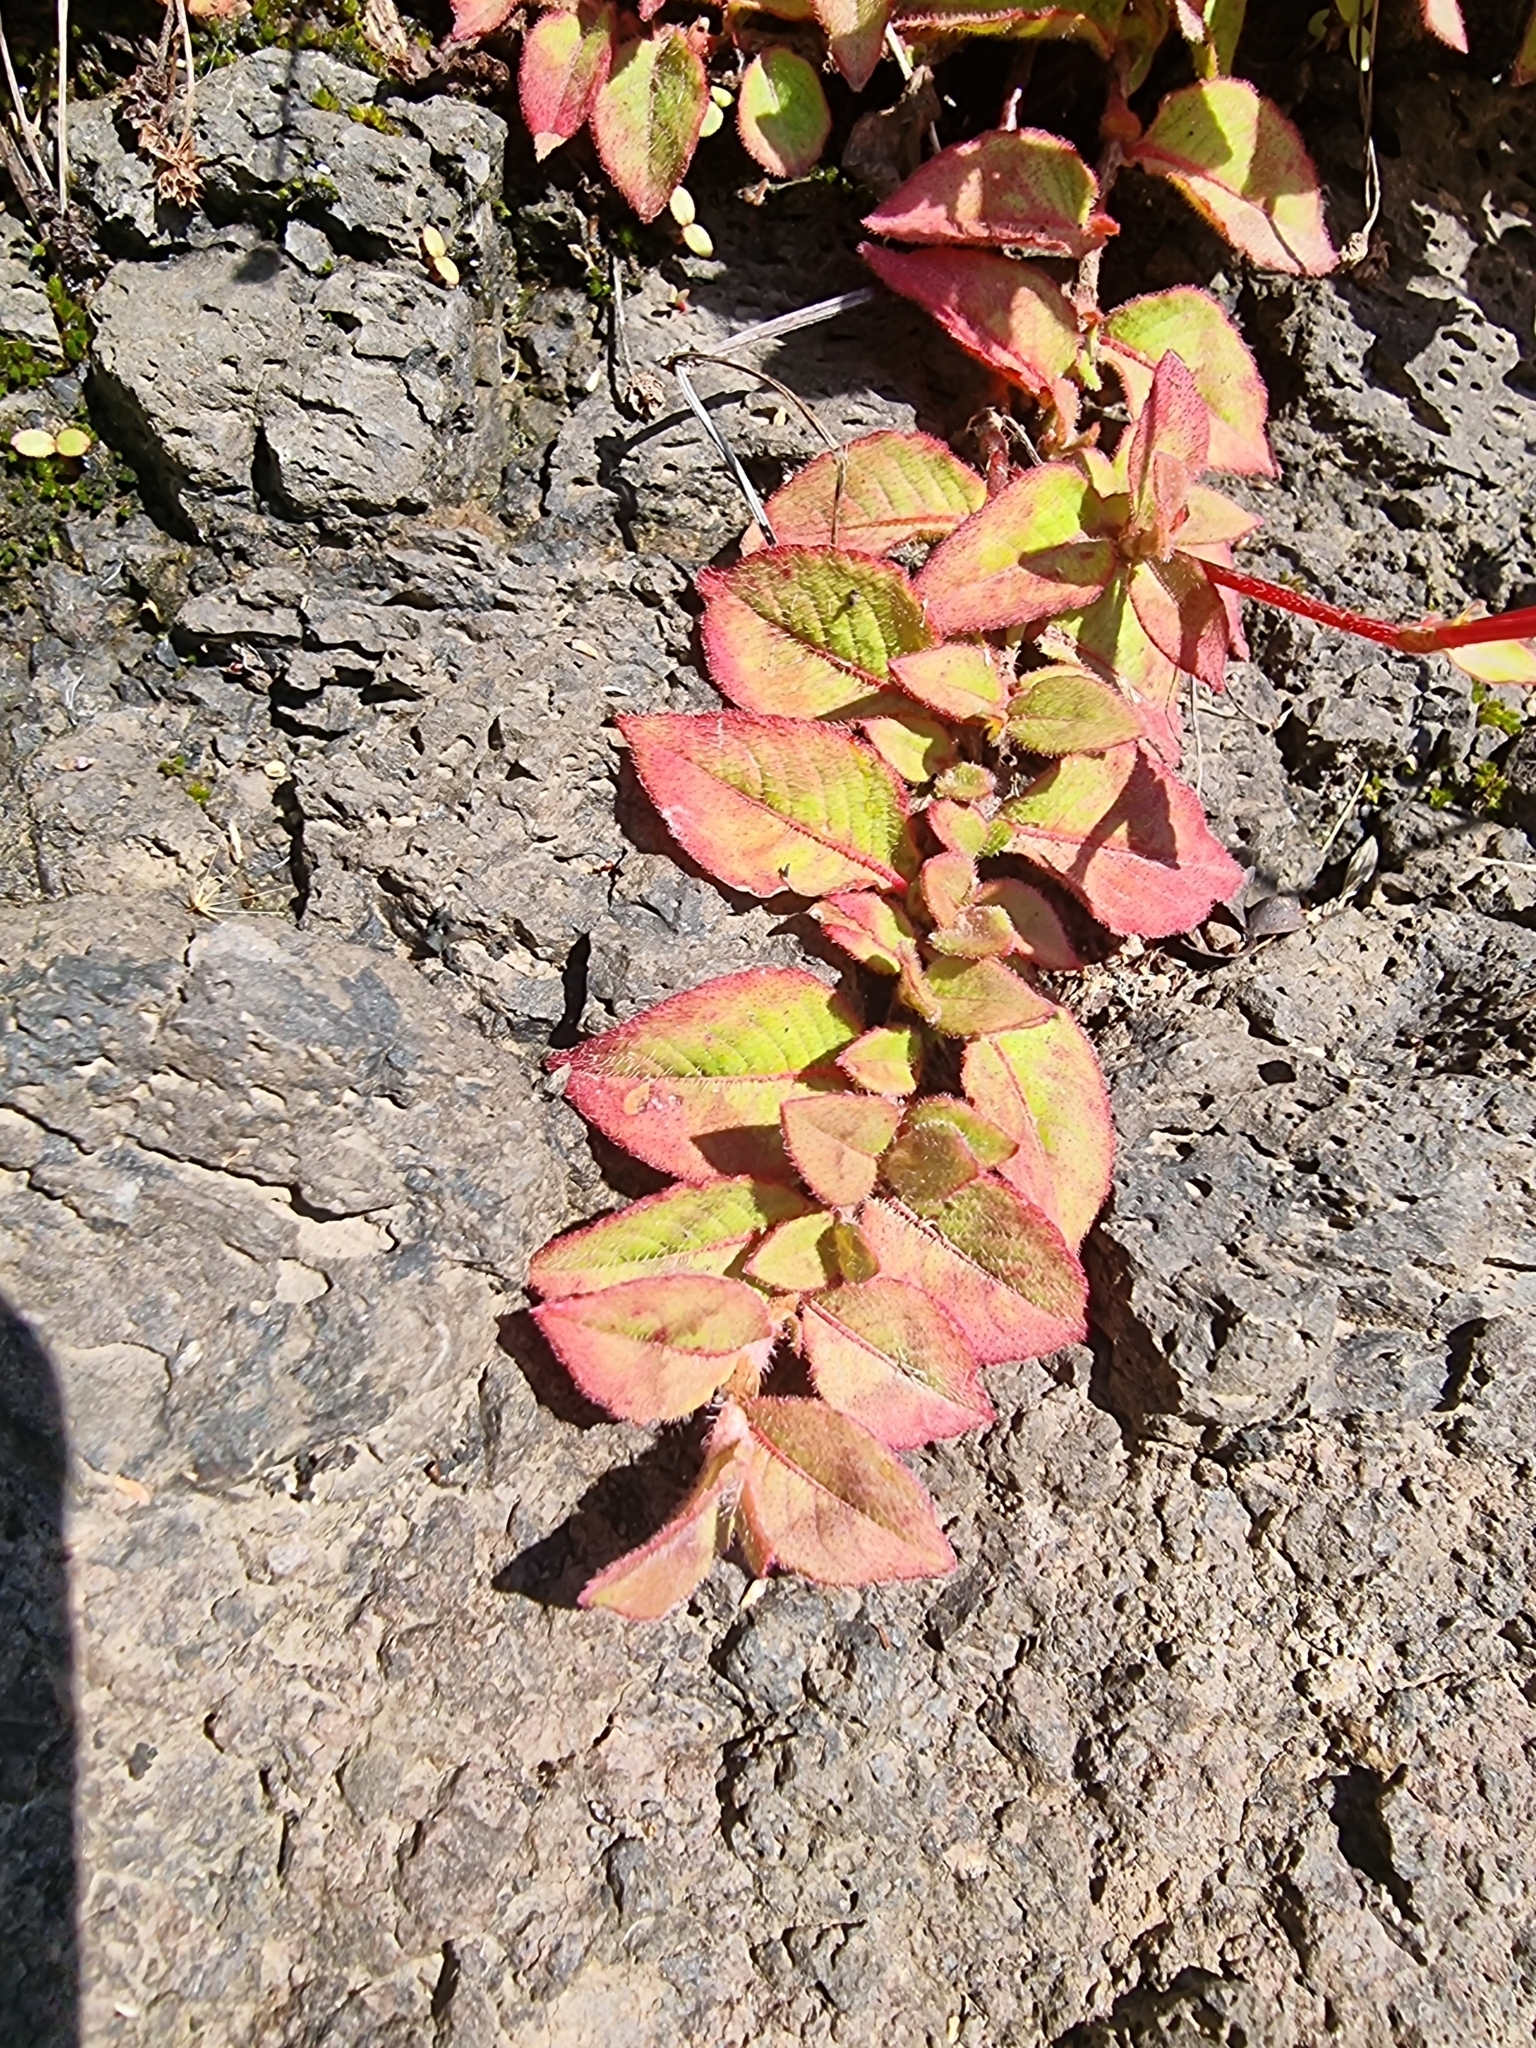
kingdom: Plantae
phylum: Tracheophyta
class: Magnoliopsida
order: Caryophyllales
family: Polygonaceae
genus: Persicaria
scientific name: Persicaria capitata
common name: Pinkhead smartweed
